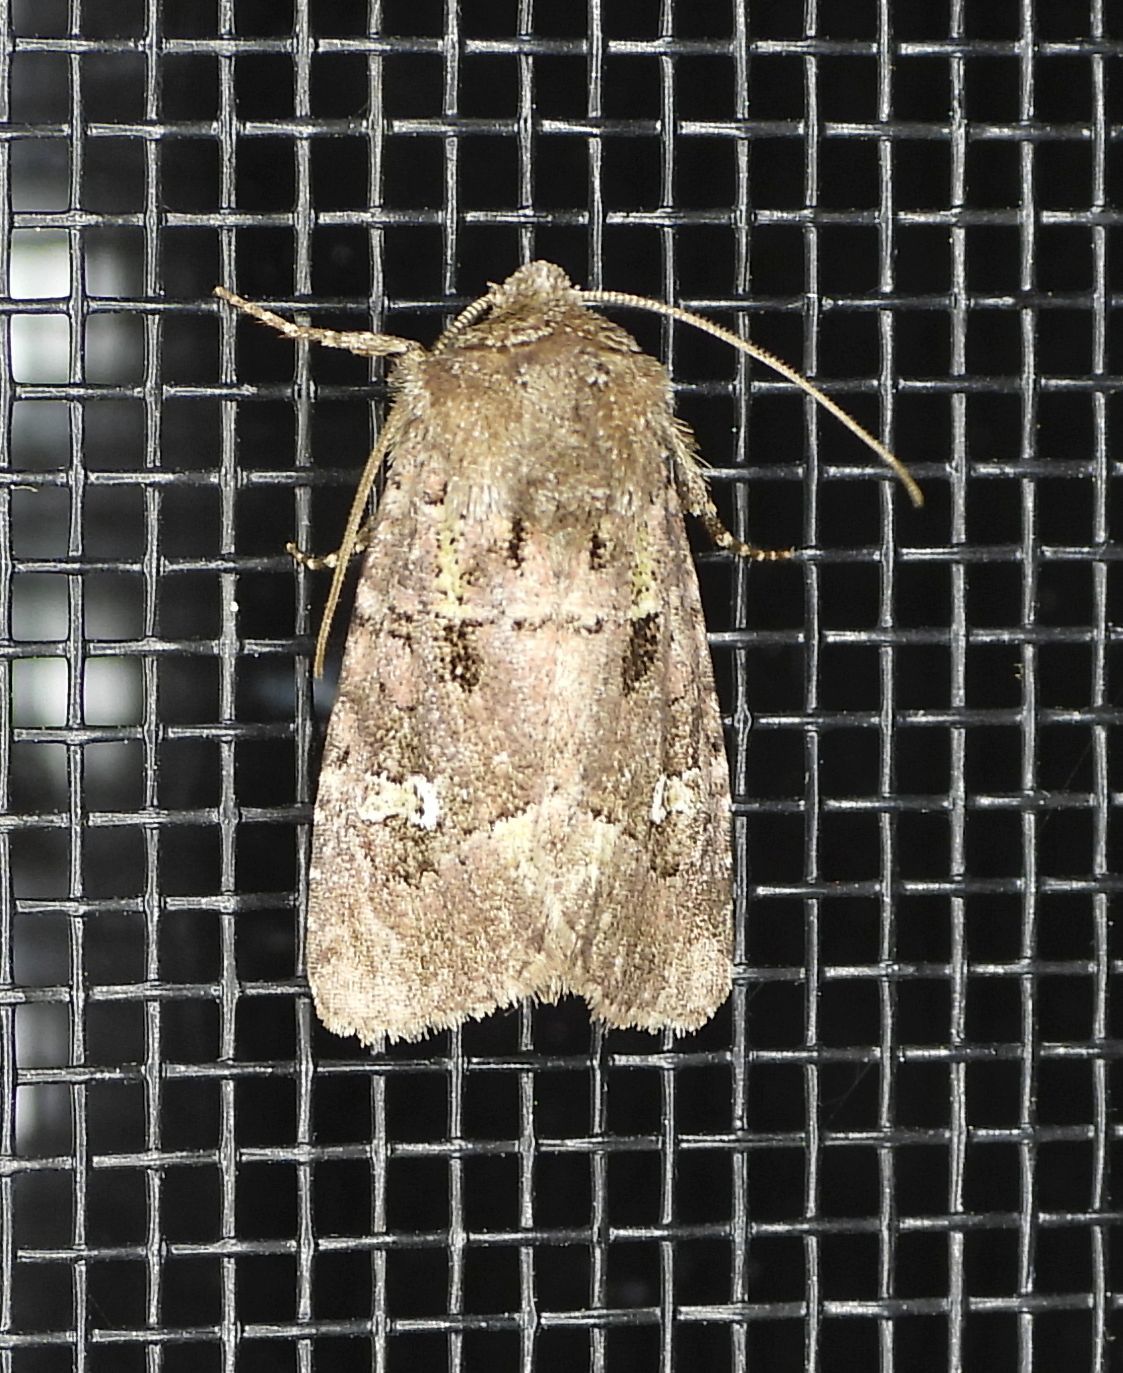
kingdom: Animalia
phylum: Arthropoda
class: Insecta
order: Lepidoptera
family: Noctuidae
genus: Lacinipolia
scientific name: Lacinipolia renigera
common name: Kidney-spotted minor
